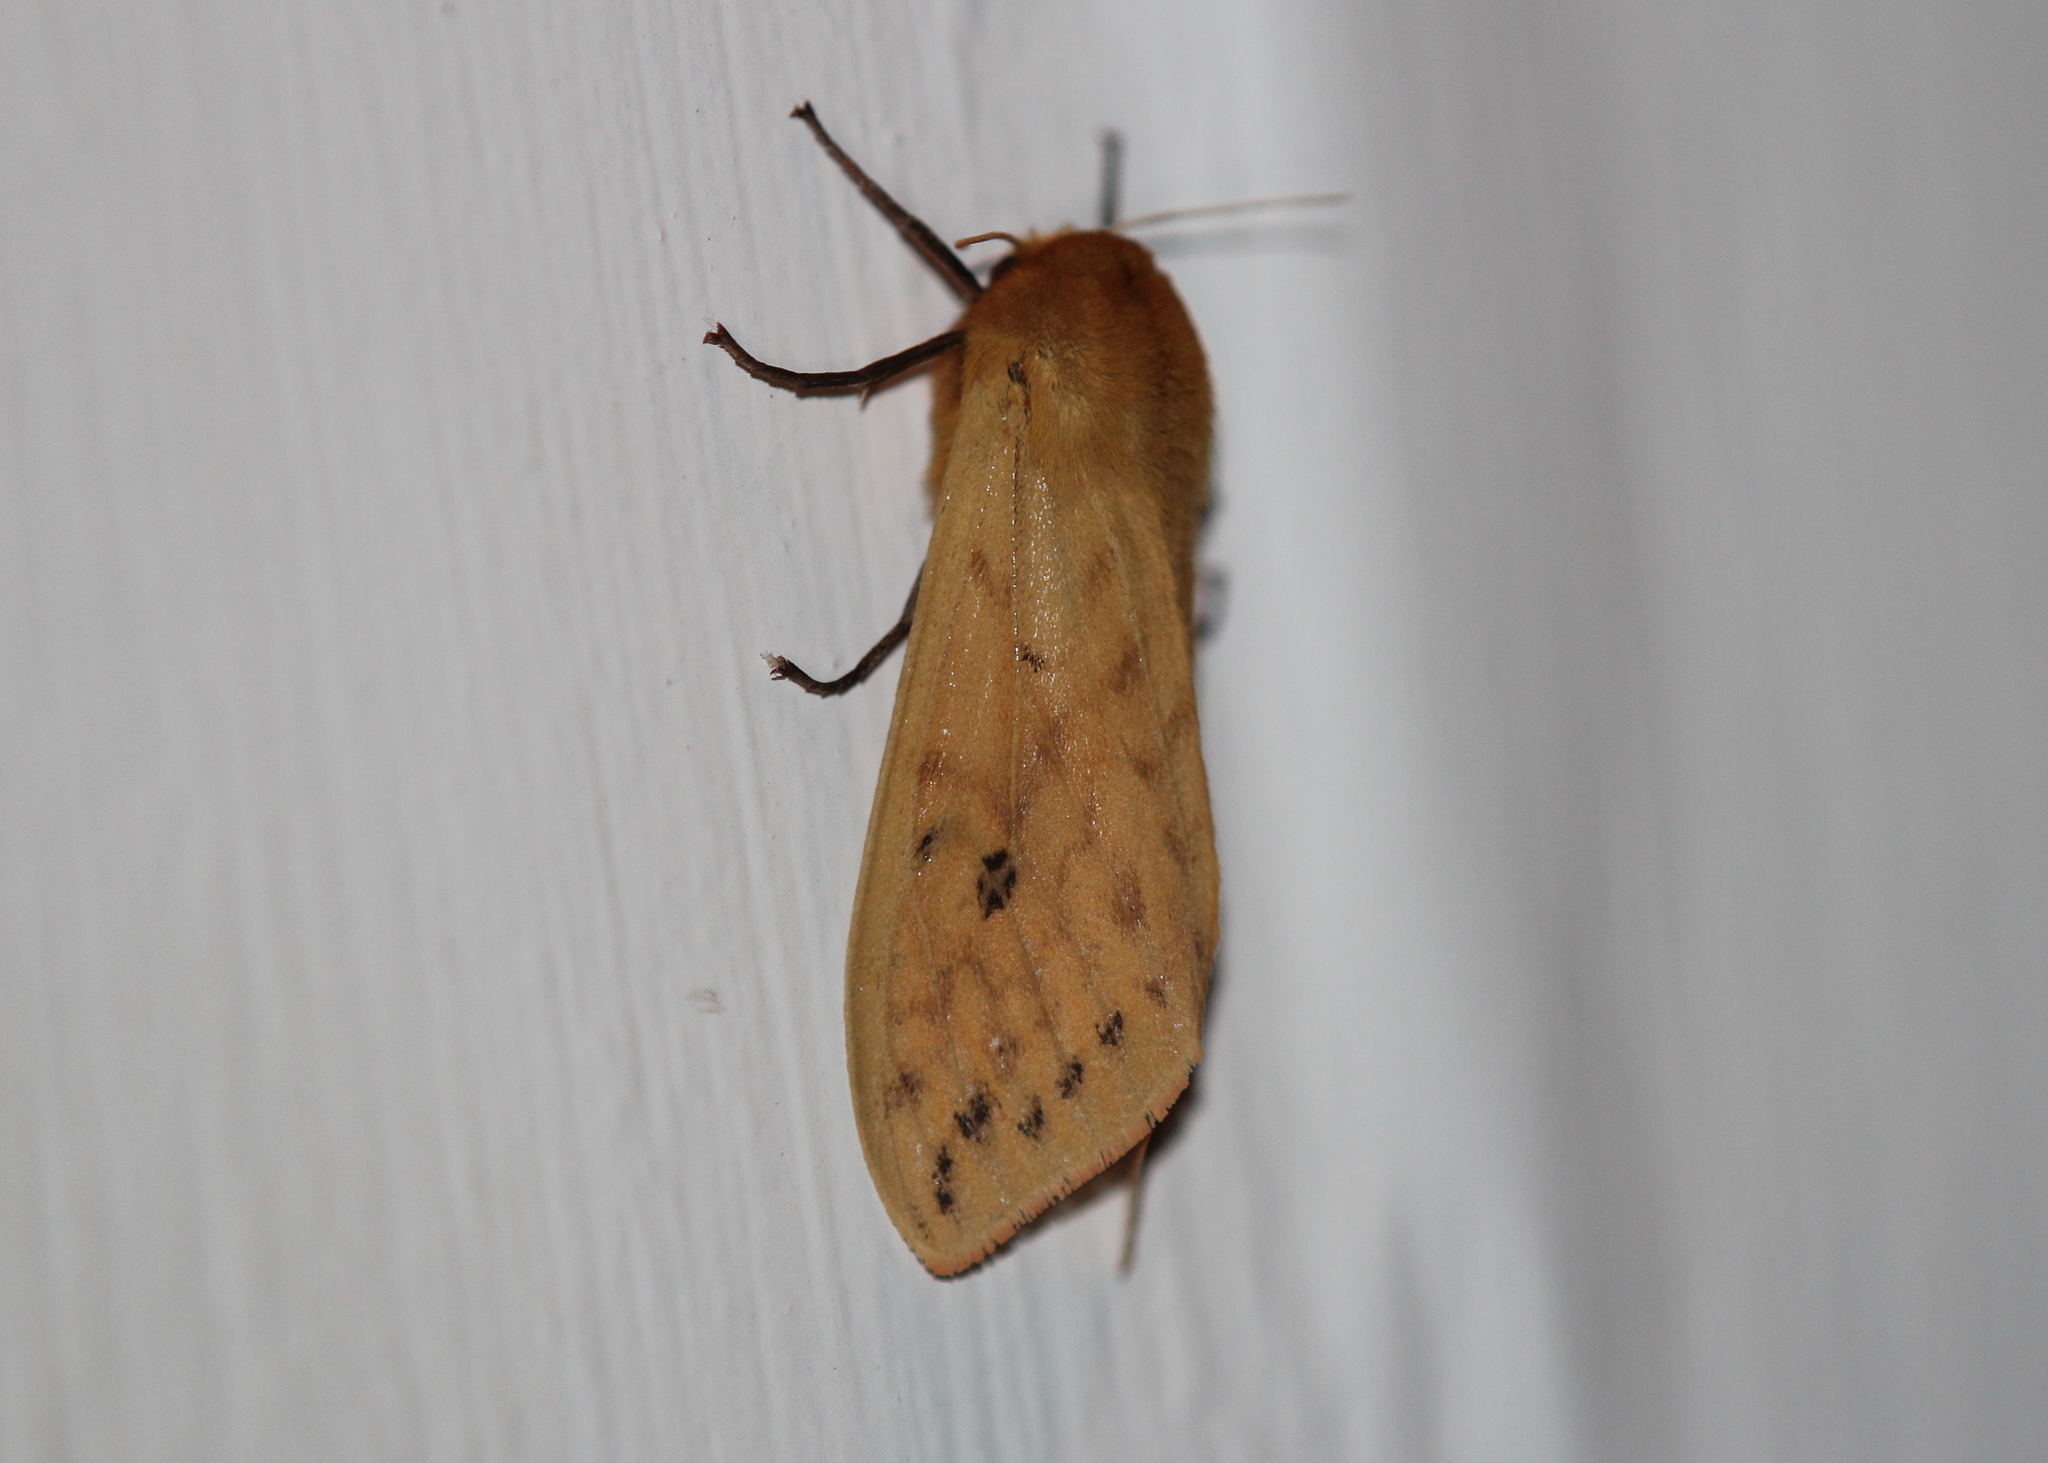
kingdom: Animalia
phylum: Arthropoda
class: Insecta
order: Lepidoptera
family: Erebidae
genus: Pyrrharctia
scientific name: Pyrrharctia isabella
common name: Isabella tiger moth
